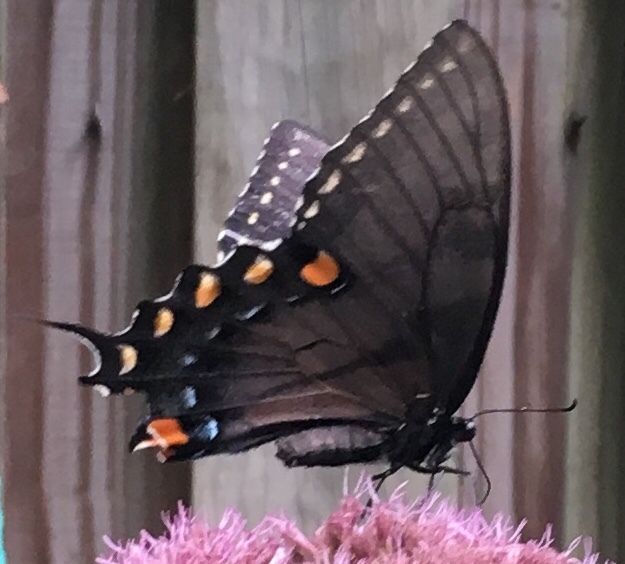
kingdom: Animalia
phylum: Arthropoda
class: Insecta
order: Lepidoptera
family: Papilionidae
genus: Papilio
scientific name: Papilio glaucus
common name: Tiger swallowtail
